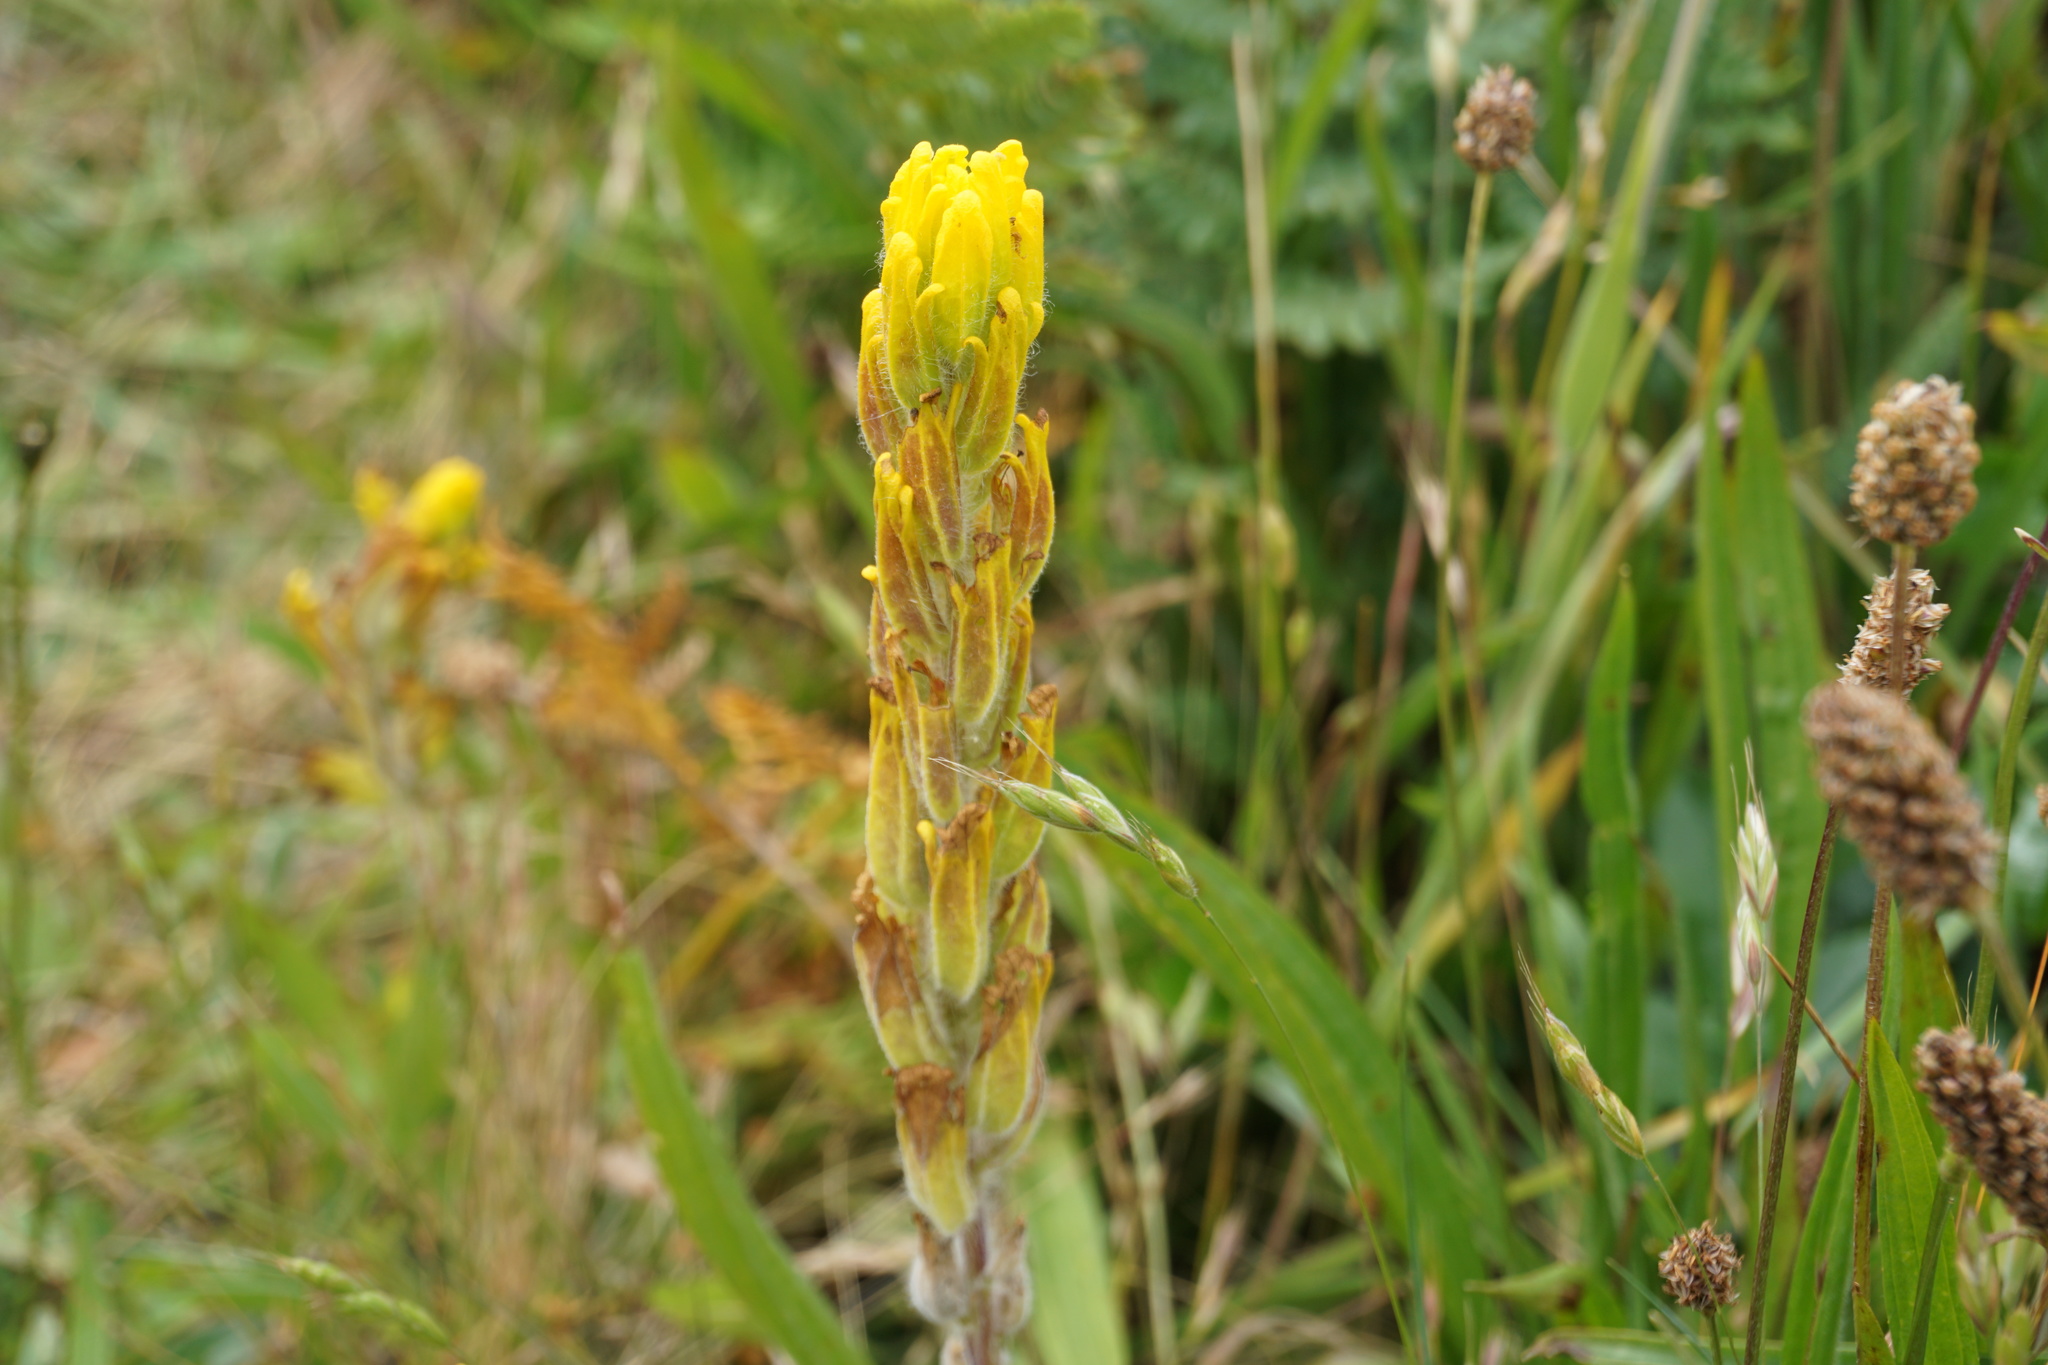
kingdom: Plantae
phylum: Tracheophyta
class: Magnoliopsida
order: Lamiales
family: Orobanchaceae
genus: Castilleja
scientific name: Castilleja levisecta
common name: Golden paintbrush
